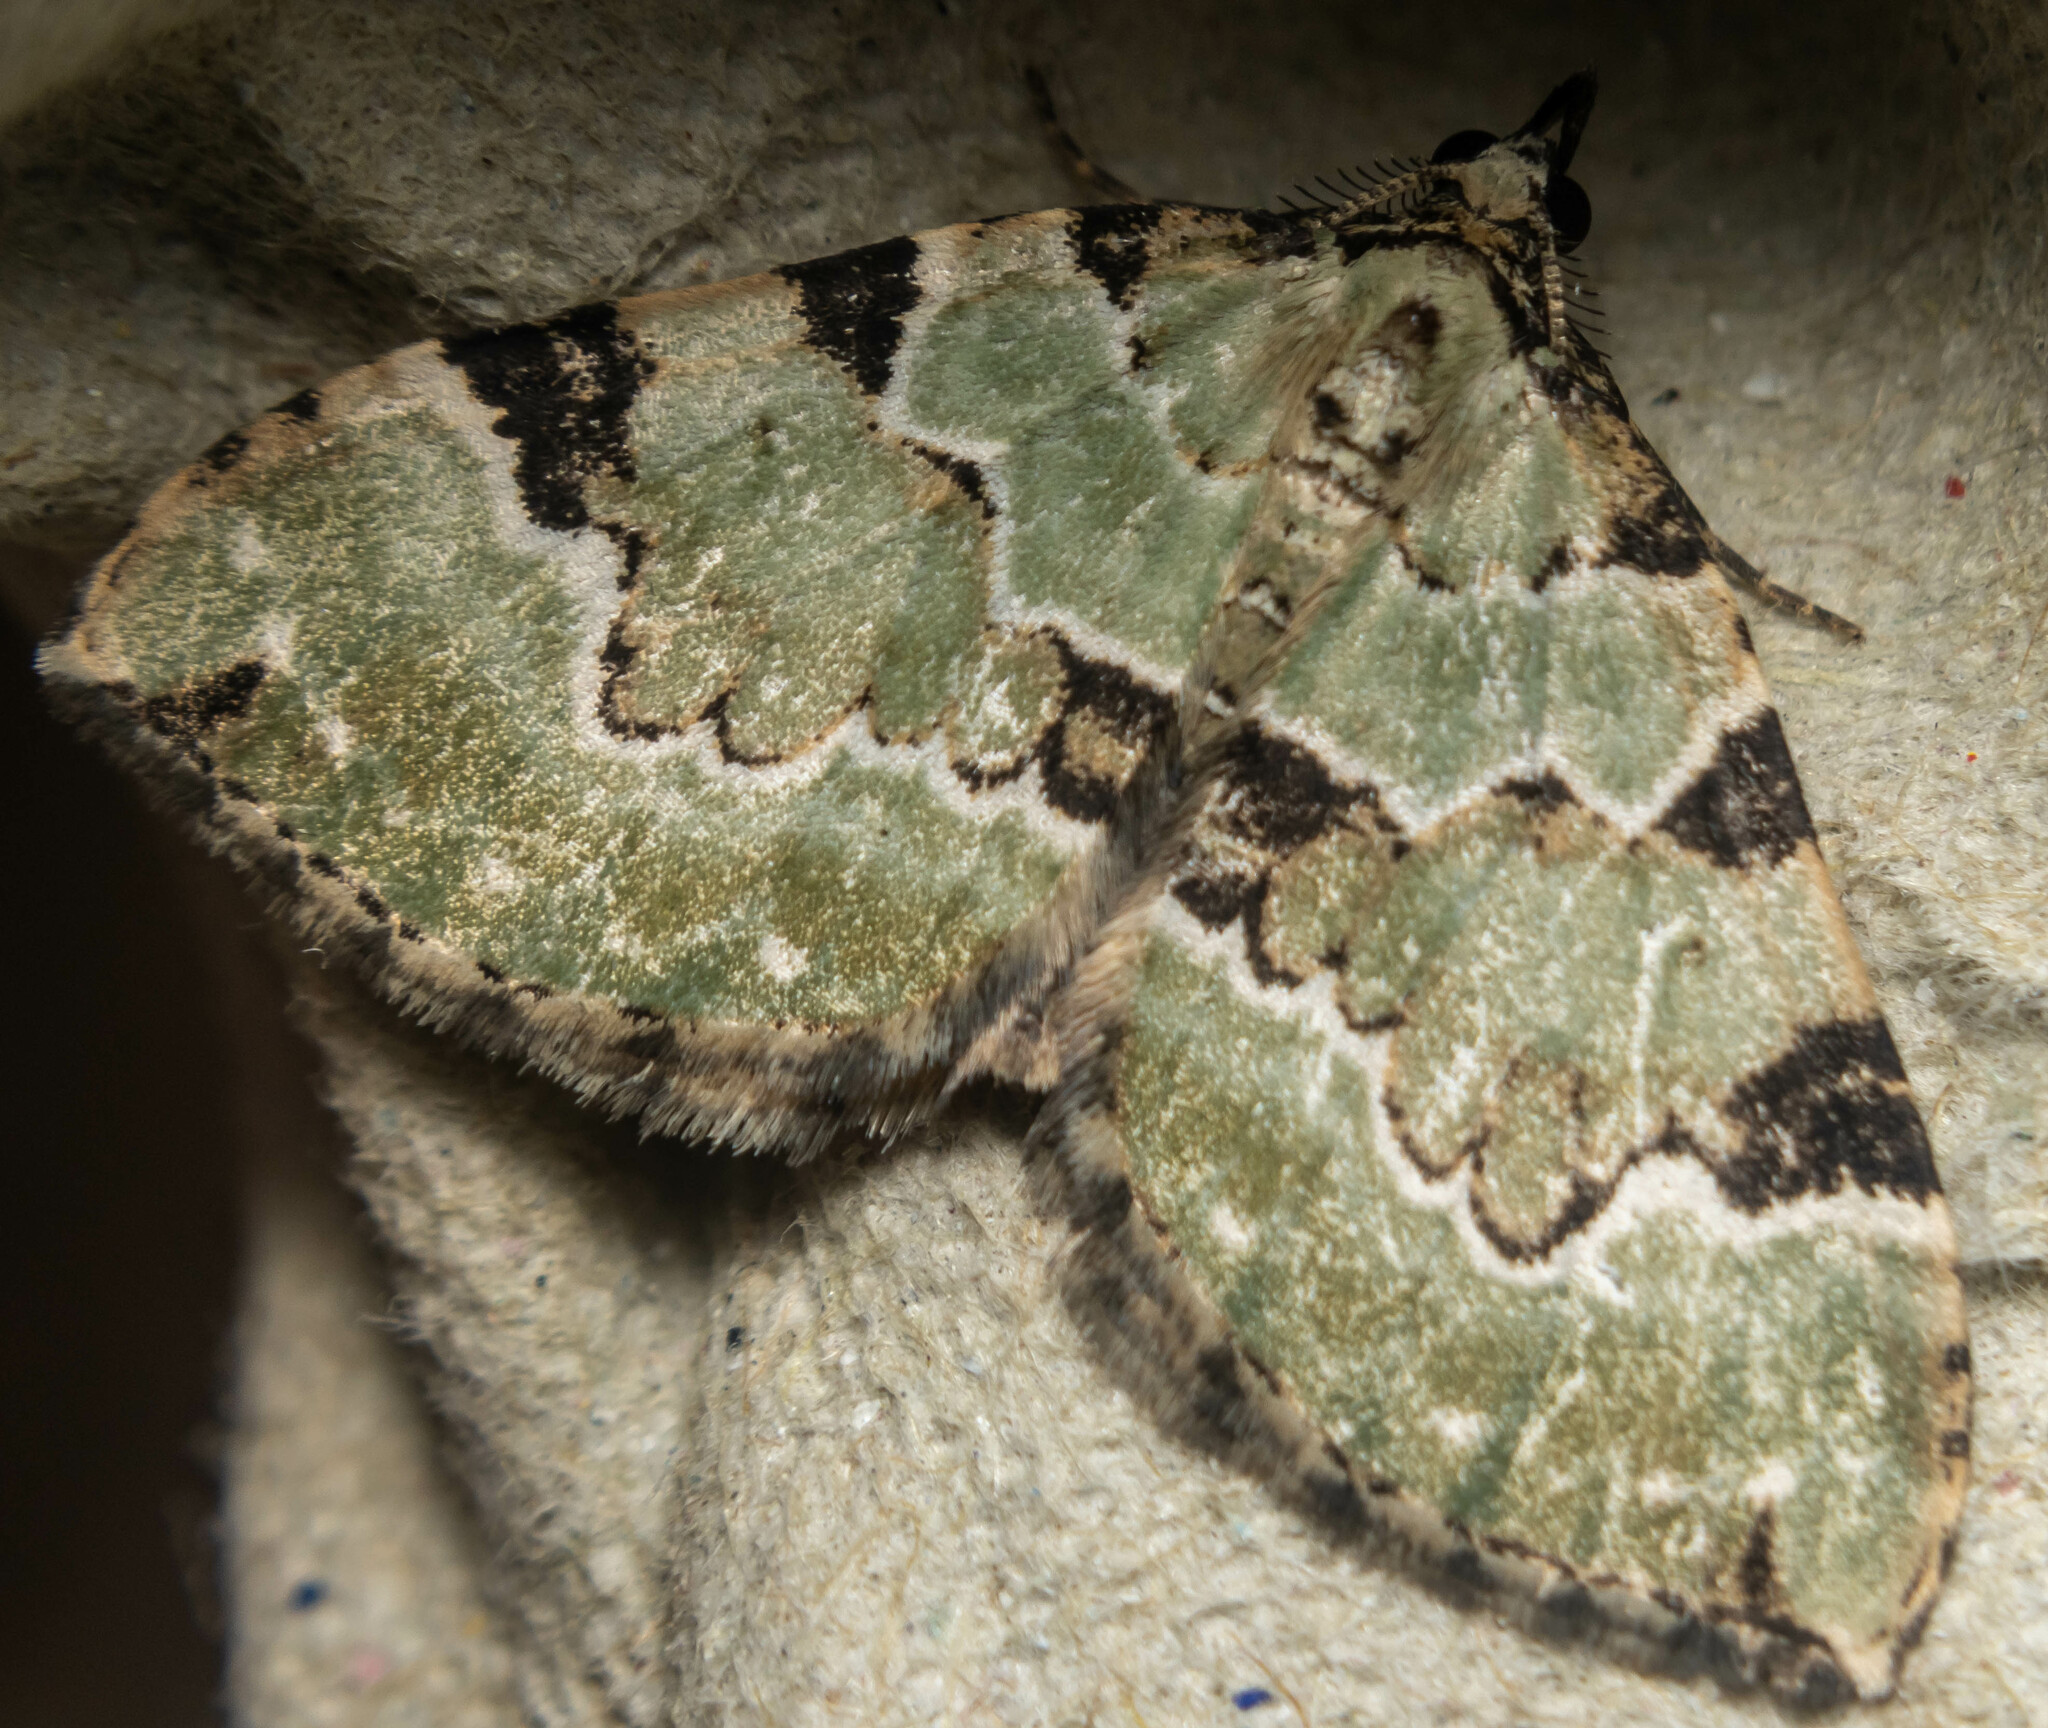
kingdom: Animalia
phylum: Arthropoda
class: Insecta
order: Lepidoptera
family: Geometridae
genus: Colostygia
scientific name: Colostygia pectinataria
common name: Green carpet
